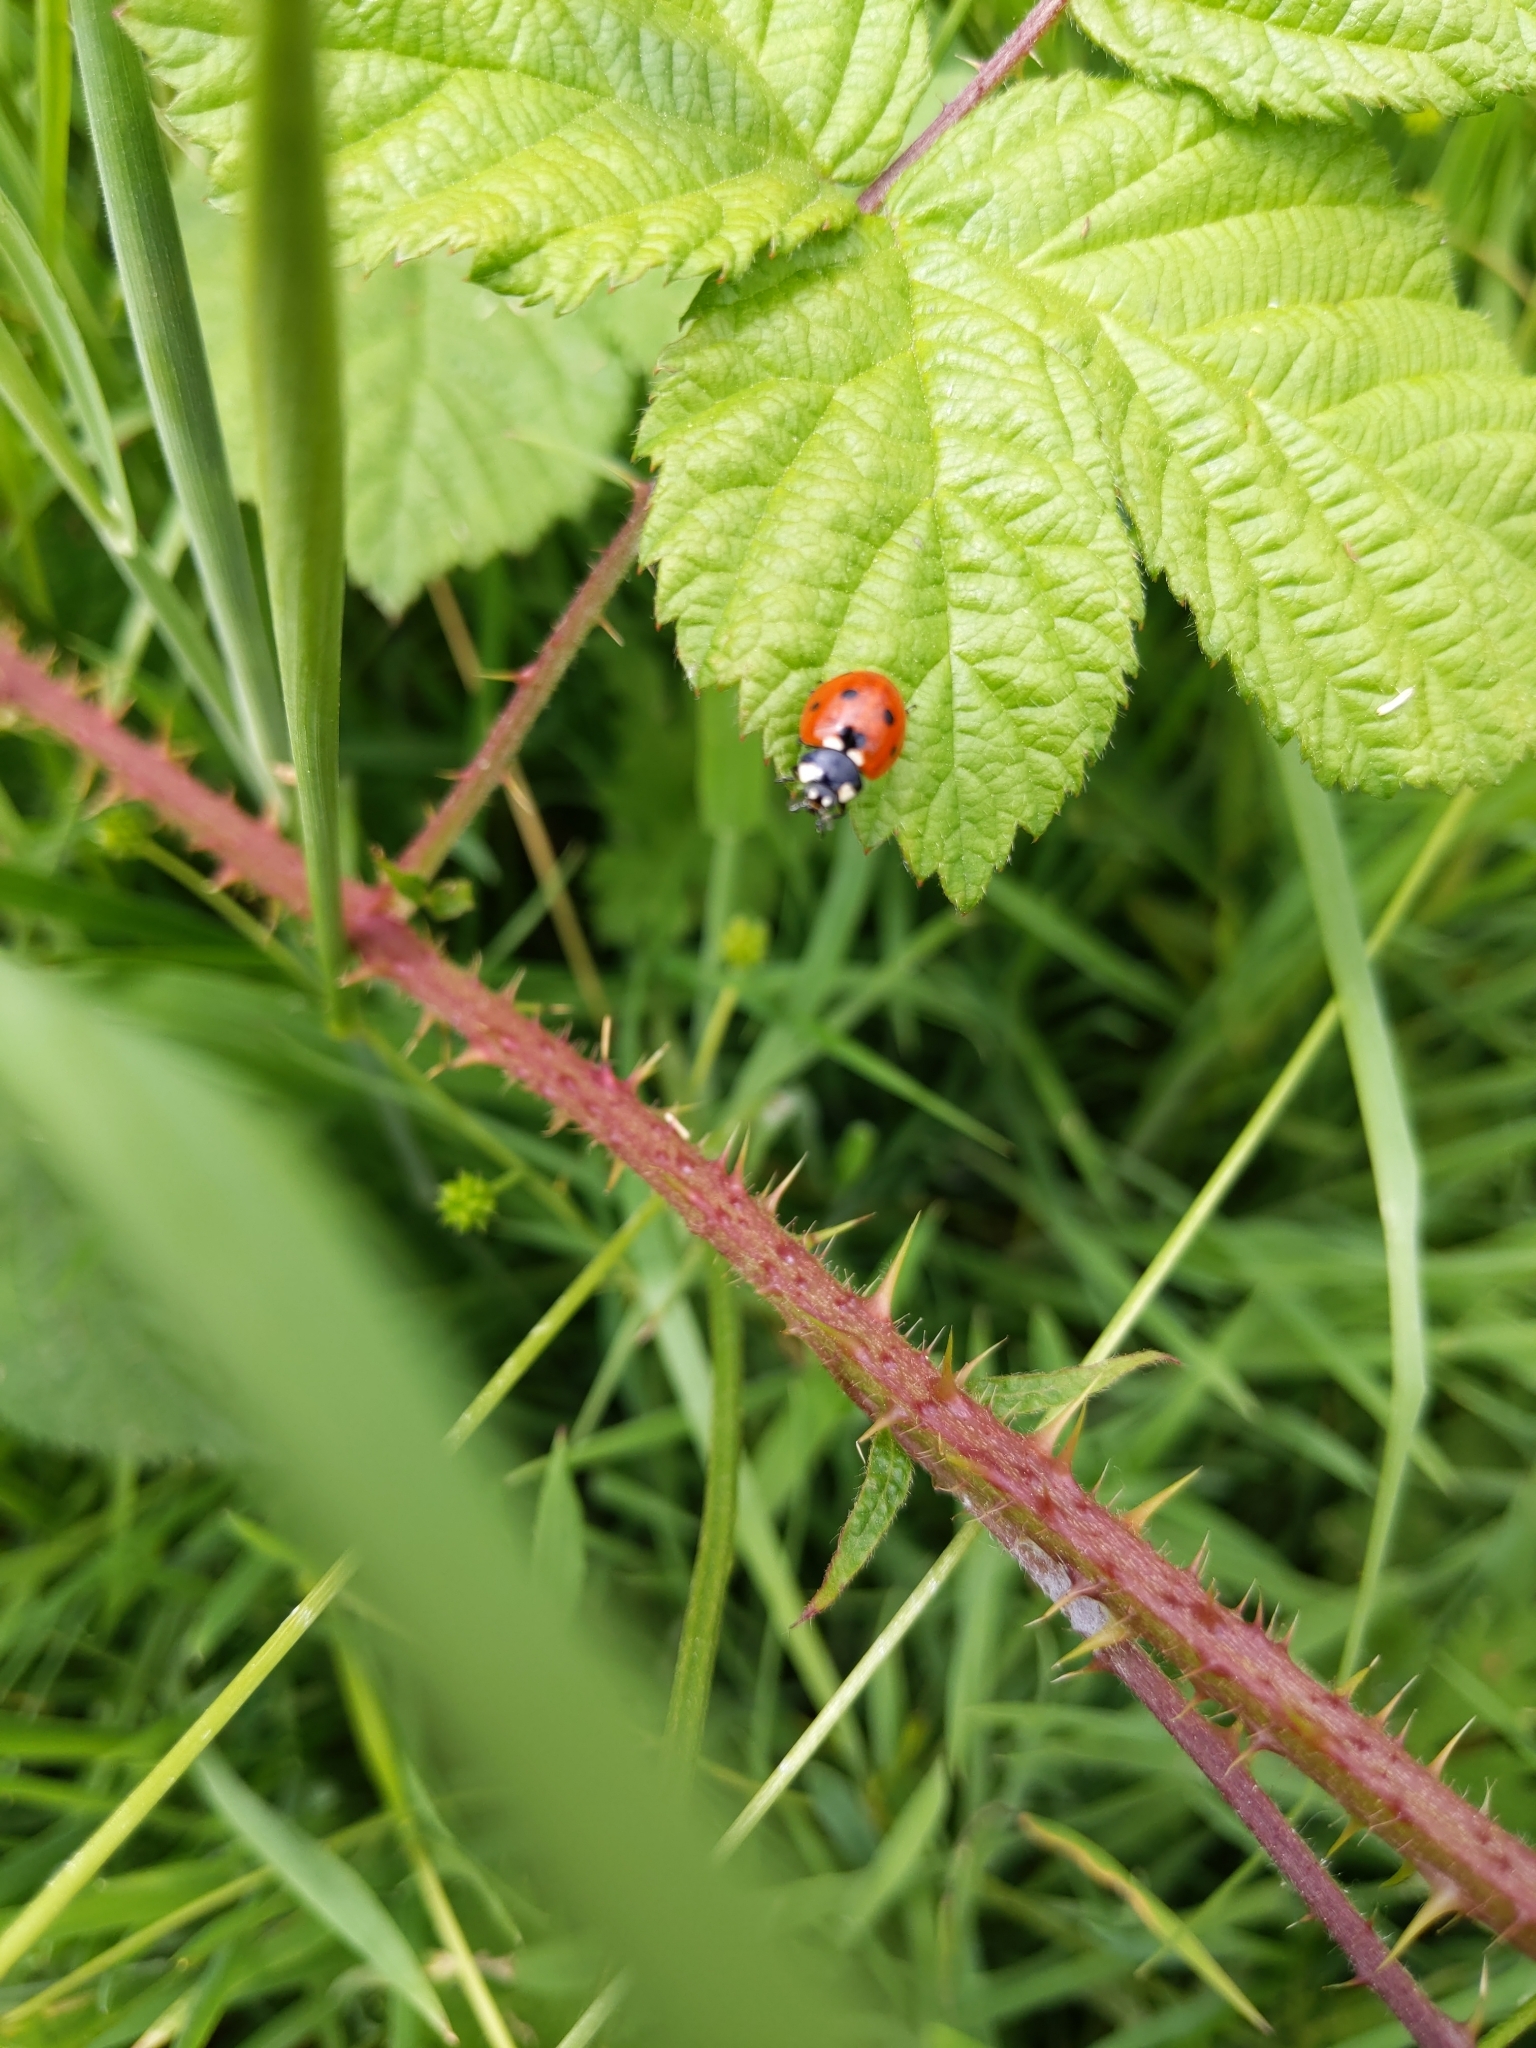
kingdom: Animalia
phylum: Arthropoda
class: Insecta
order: Coleoptera
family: Coccinellidae
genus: Coccinella
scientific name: Coccinella septempunctata
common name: Sevenspotted lady beetle
